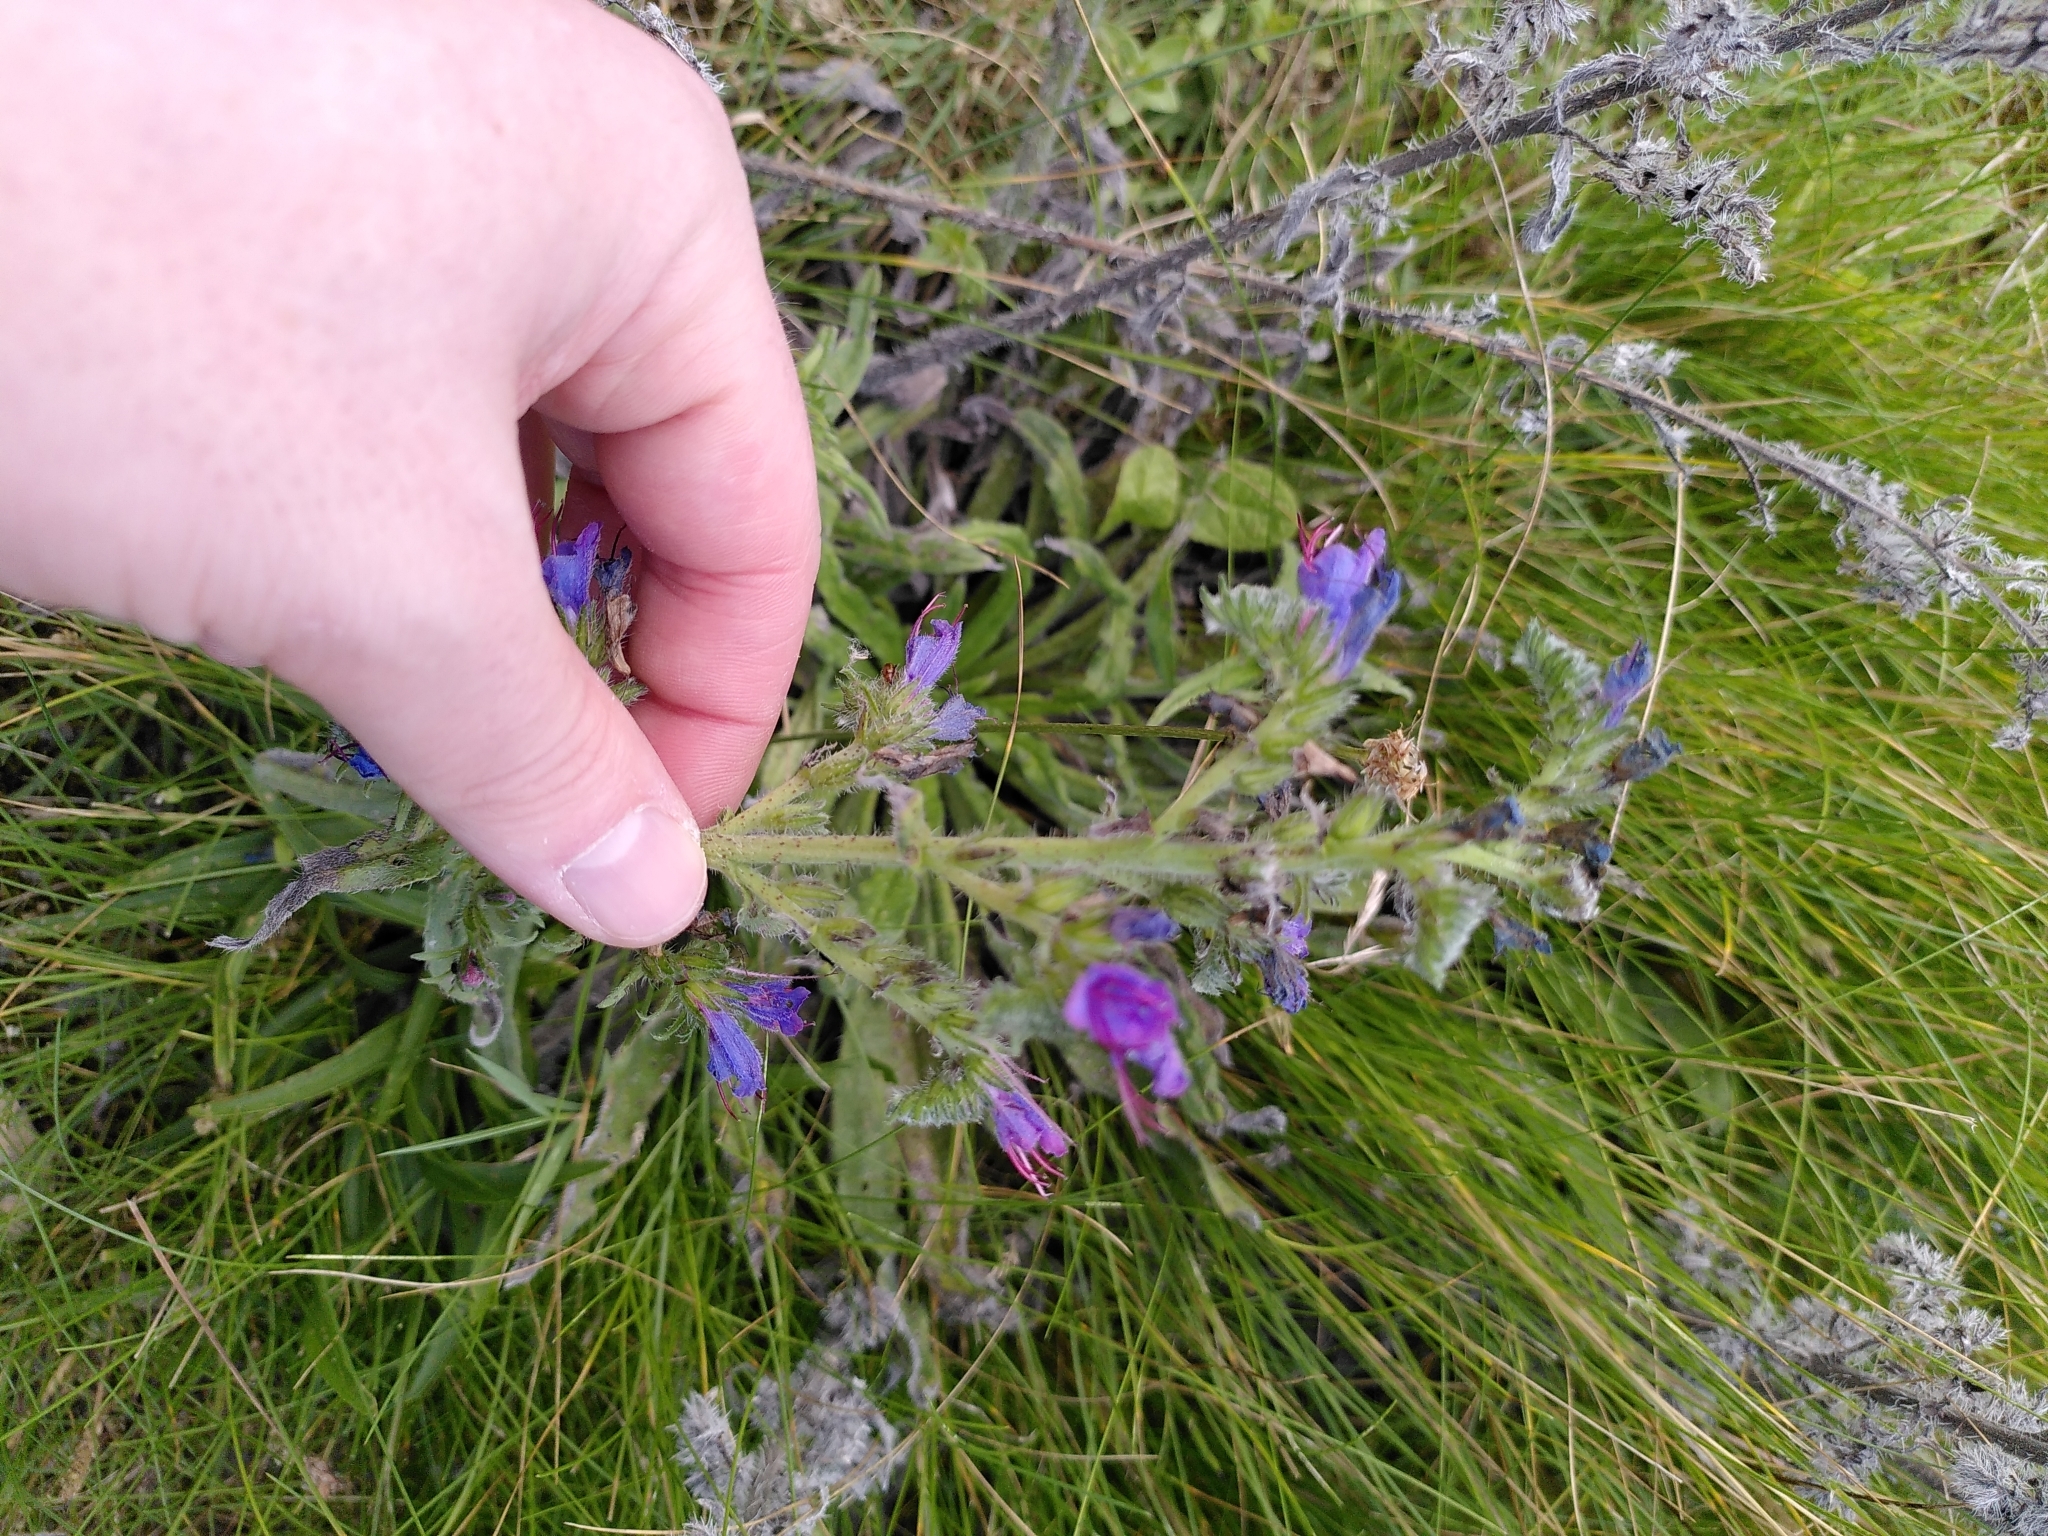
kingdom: Plantae
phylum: Tracheophyta
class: Magnoliopsida
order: Boraginales
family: Boraginaceae
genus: Echium
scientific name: Echium vulgare
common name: Common viper's bugloss
